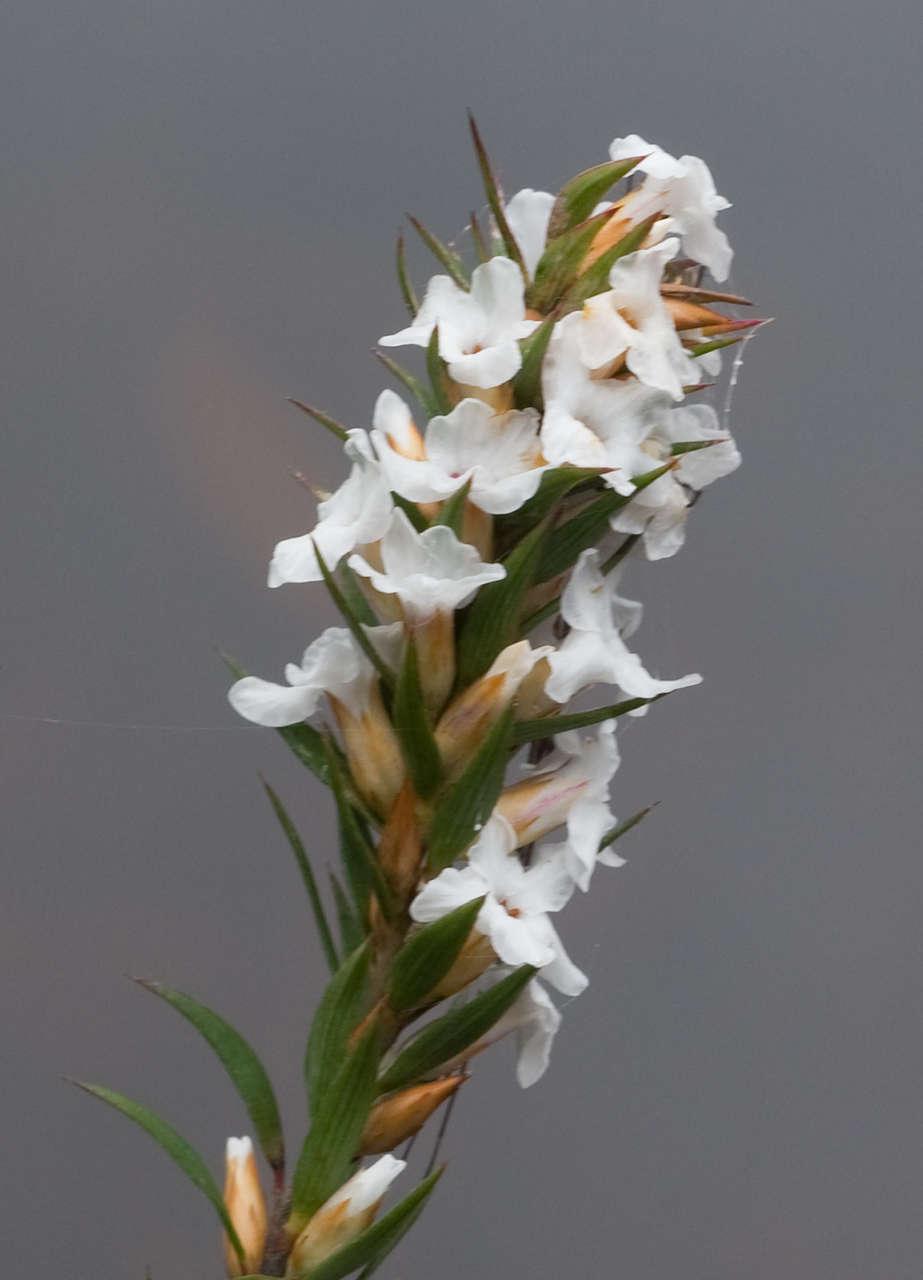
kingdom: Plantae
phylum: Tracheophyta
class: Magnoliopsida
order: Ericales
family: Ericaceae
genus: Epacris
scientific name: Epacris lanuginosa
